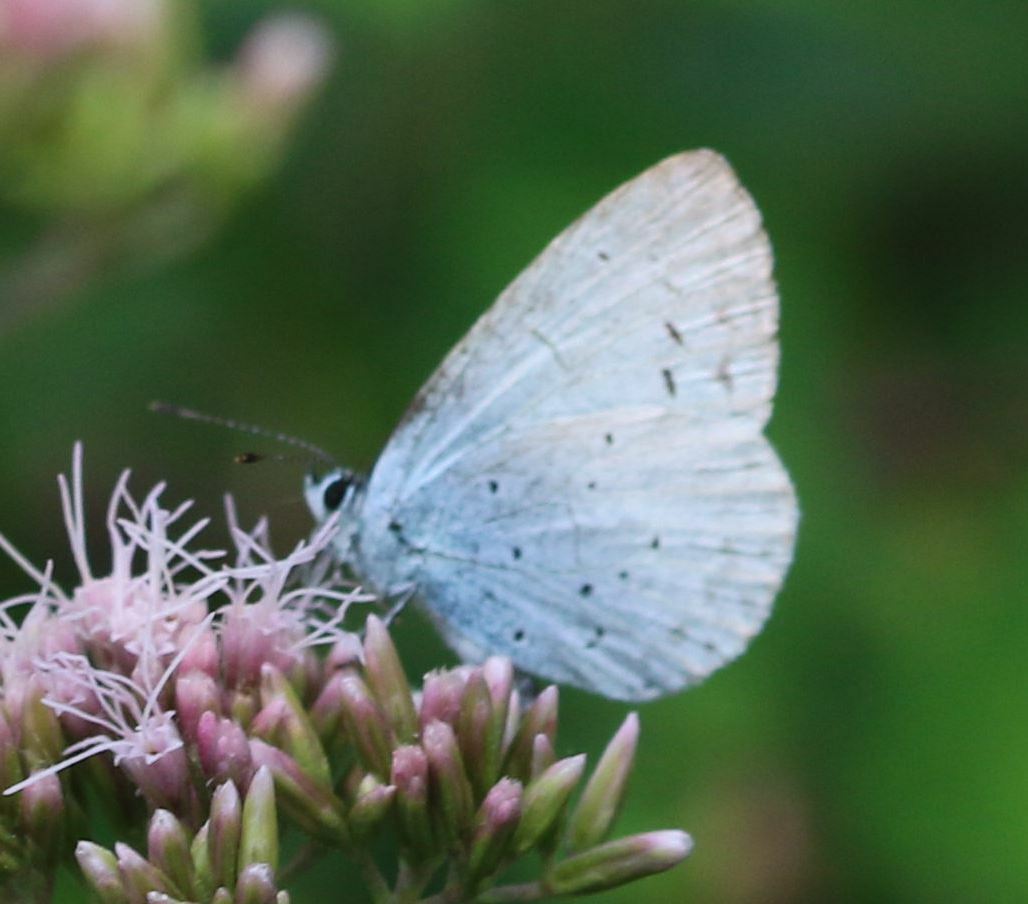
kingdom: Animalia
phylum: Arthropoda
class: Insecta
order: Lepidoptera
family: Lycaenidae
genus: Celastrina
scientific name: Celastrina argiolus
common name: Holly blue
